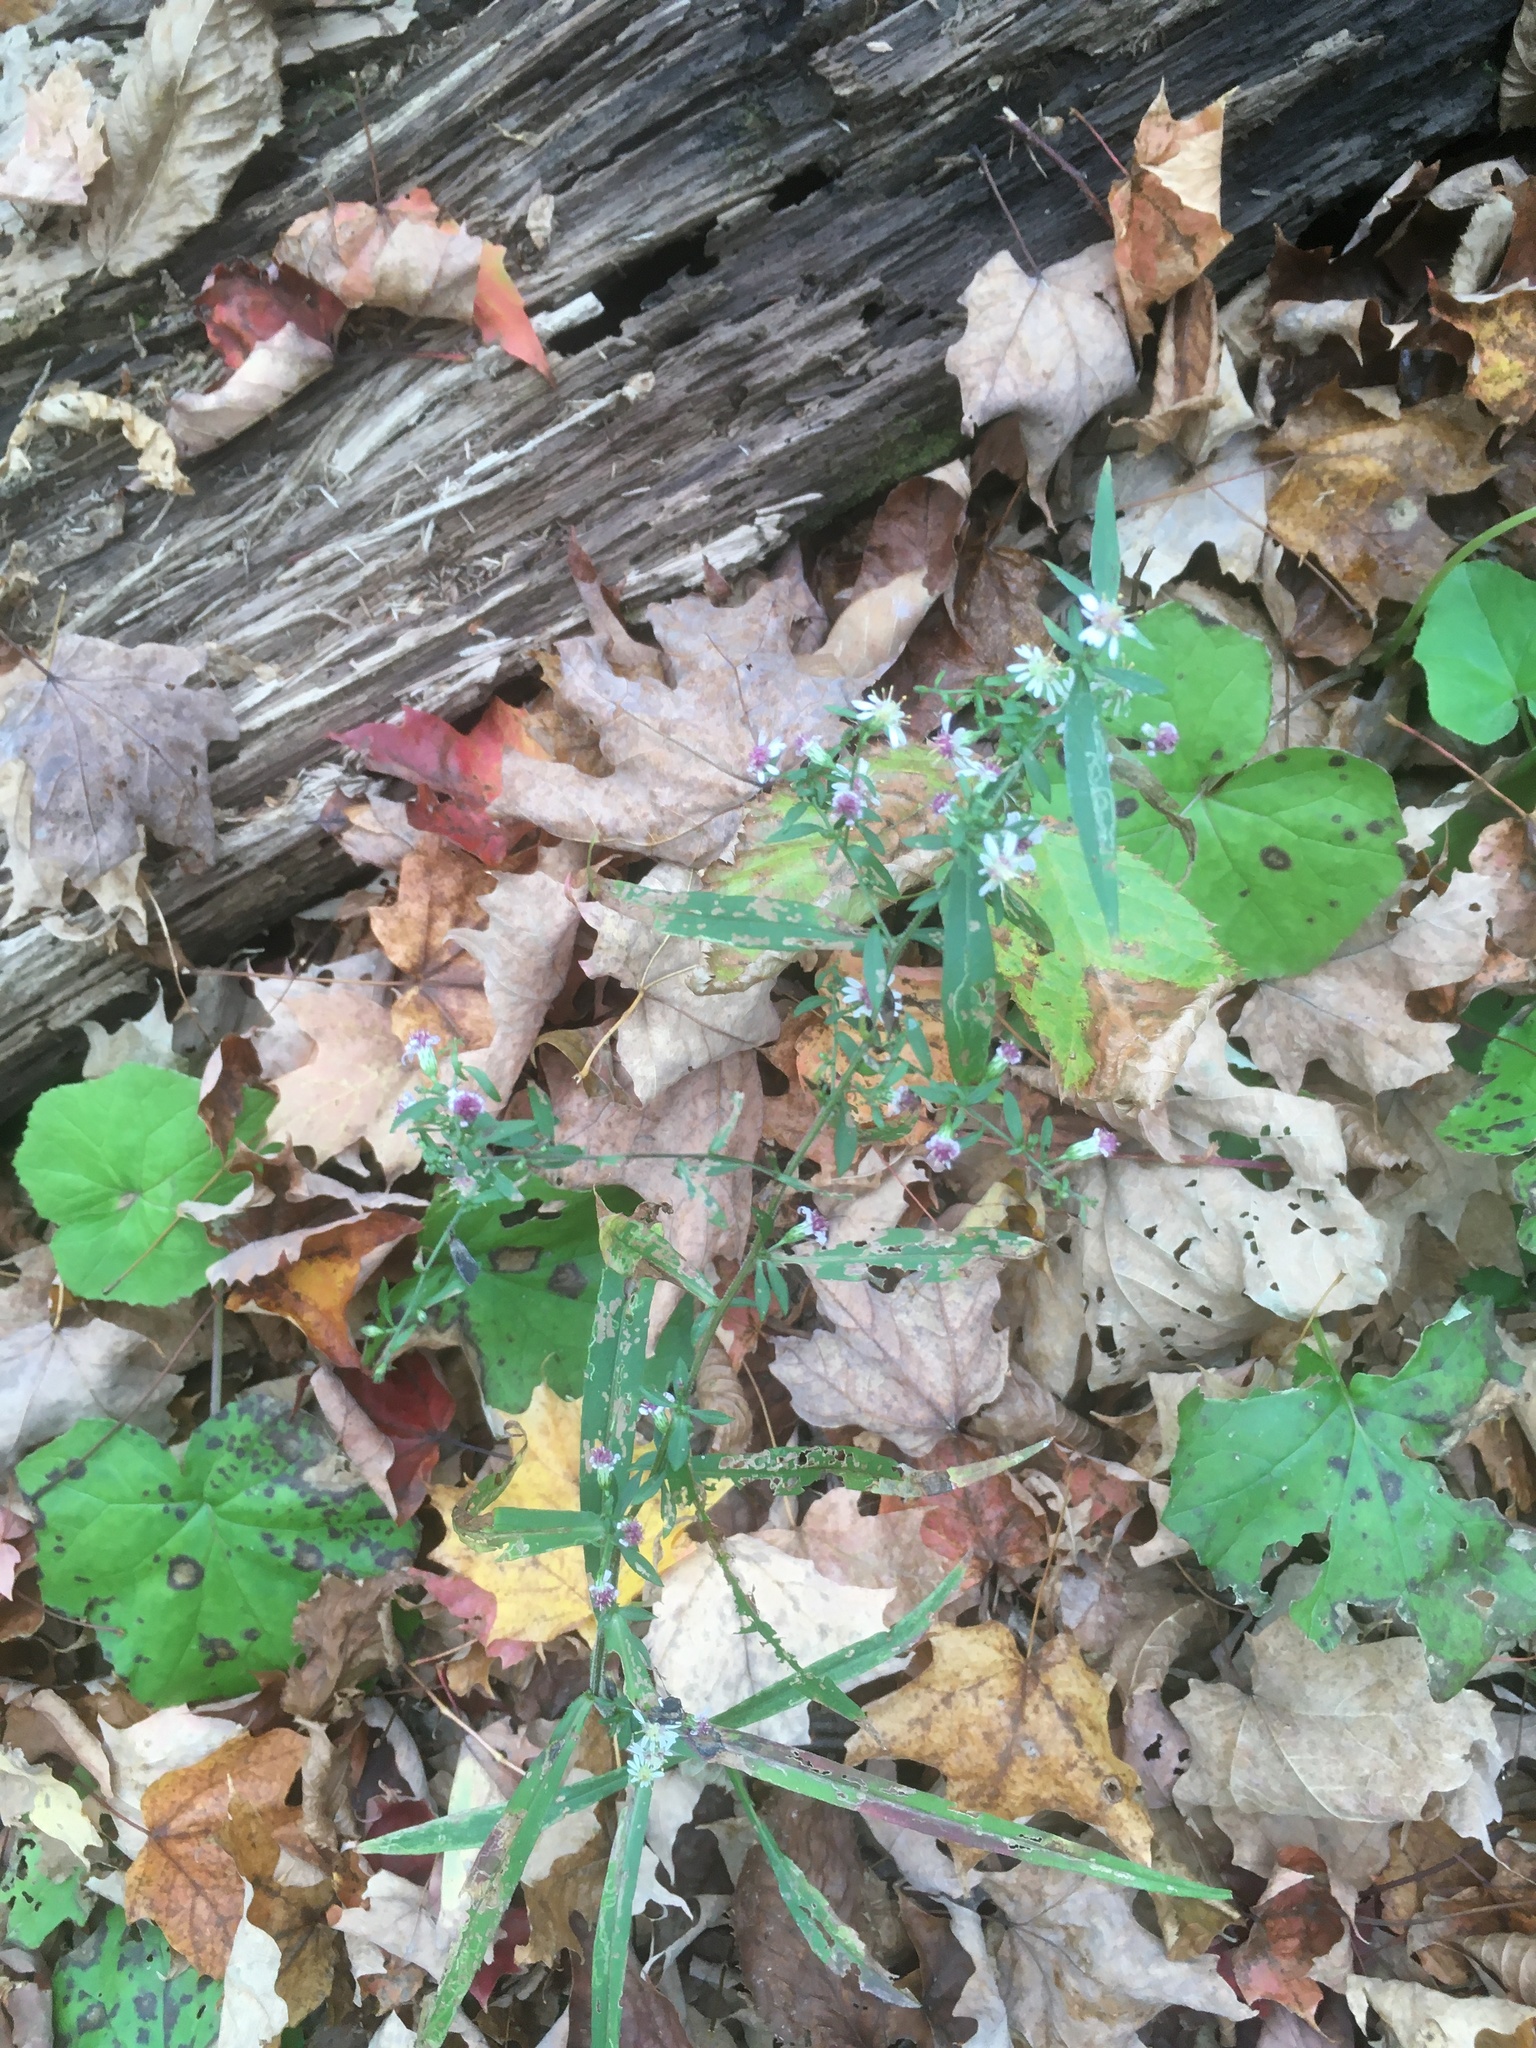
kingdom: Plantae
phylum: Tracheophyta
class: Magnoliopsida
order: Asterales
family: Asteraceae
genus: Symphyotrichum
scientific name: Symphyotrichum lateriflorum
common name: Calico aster
